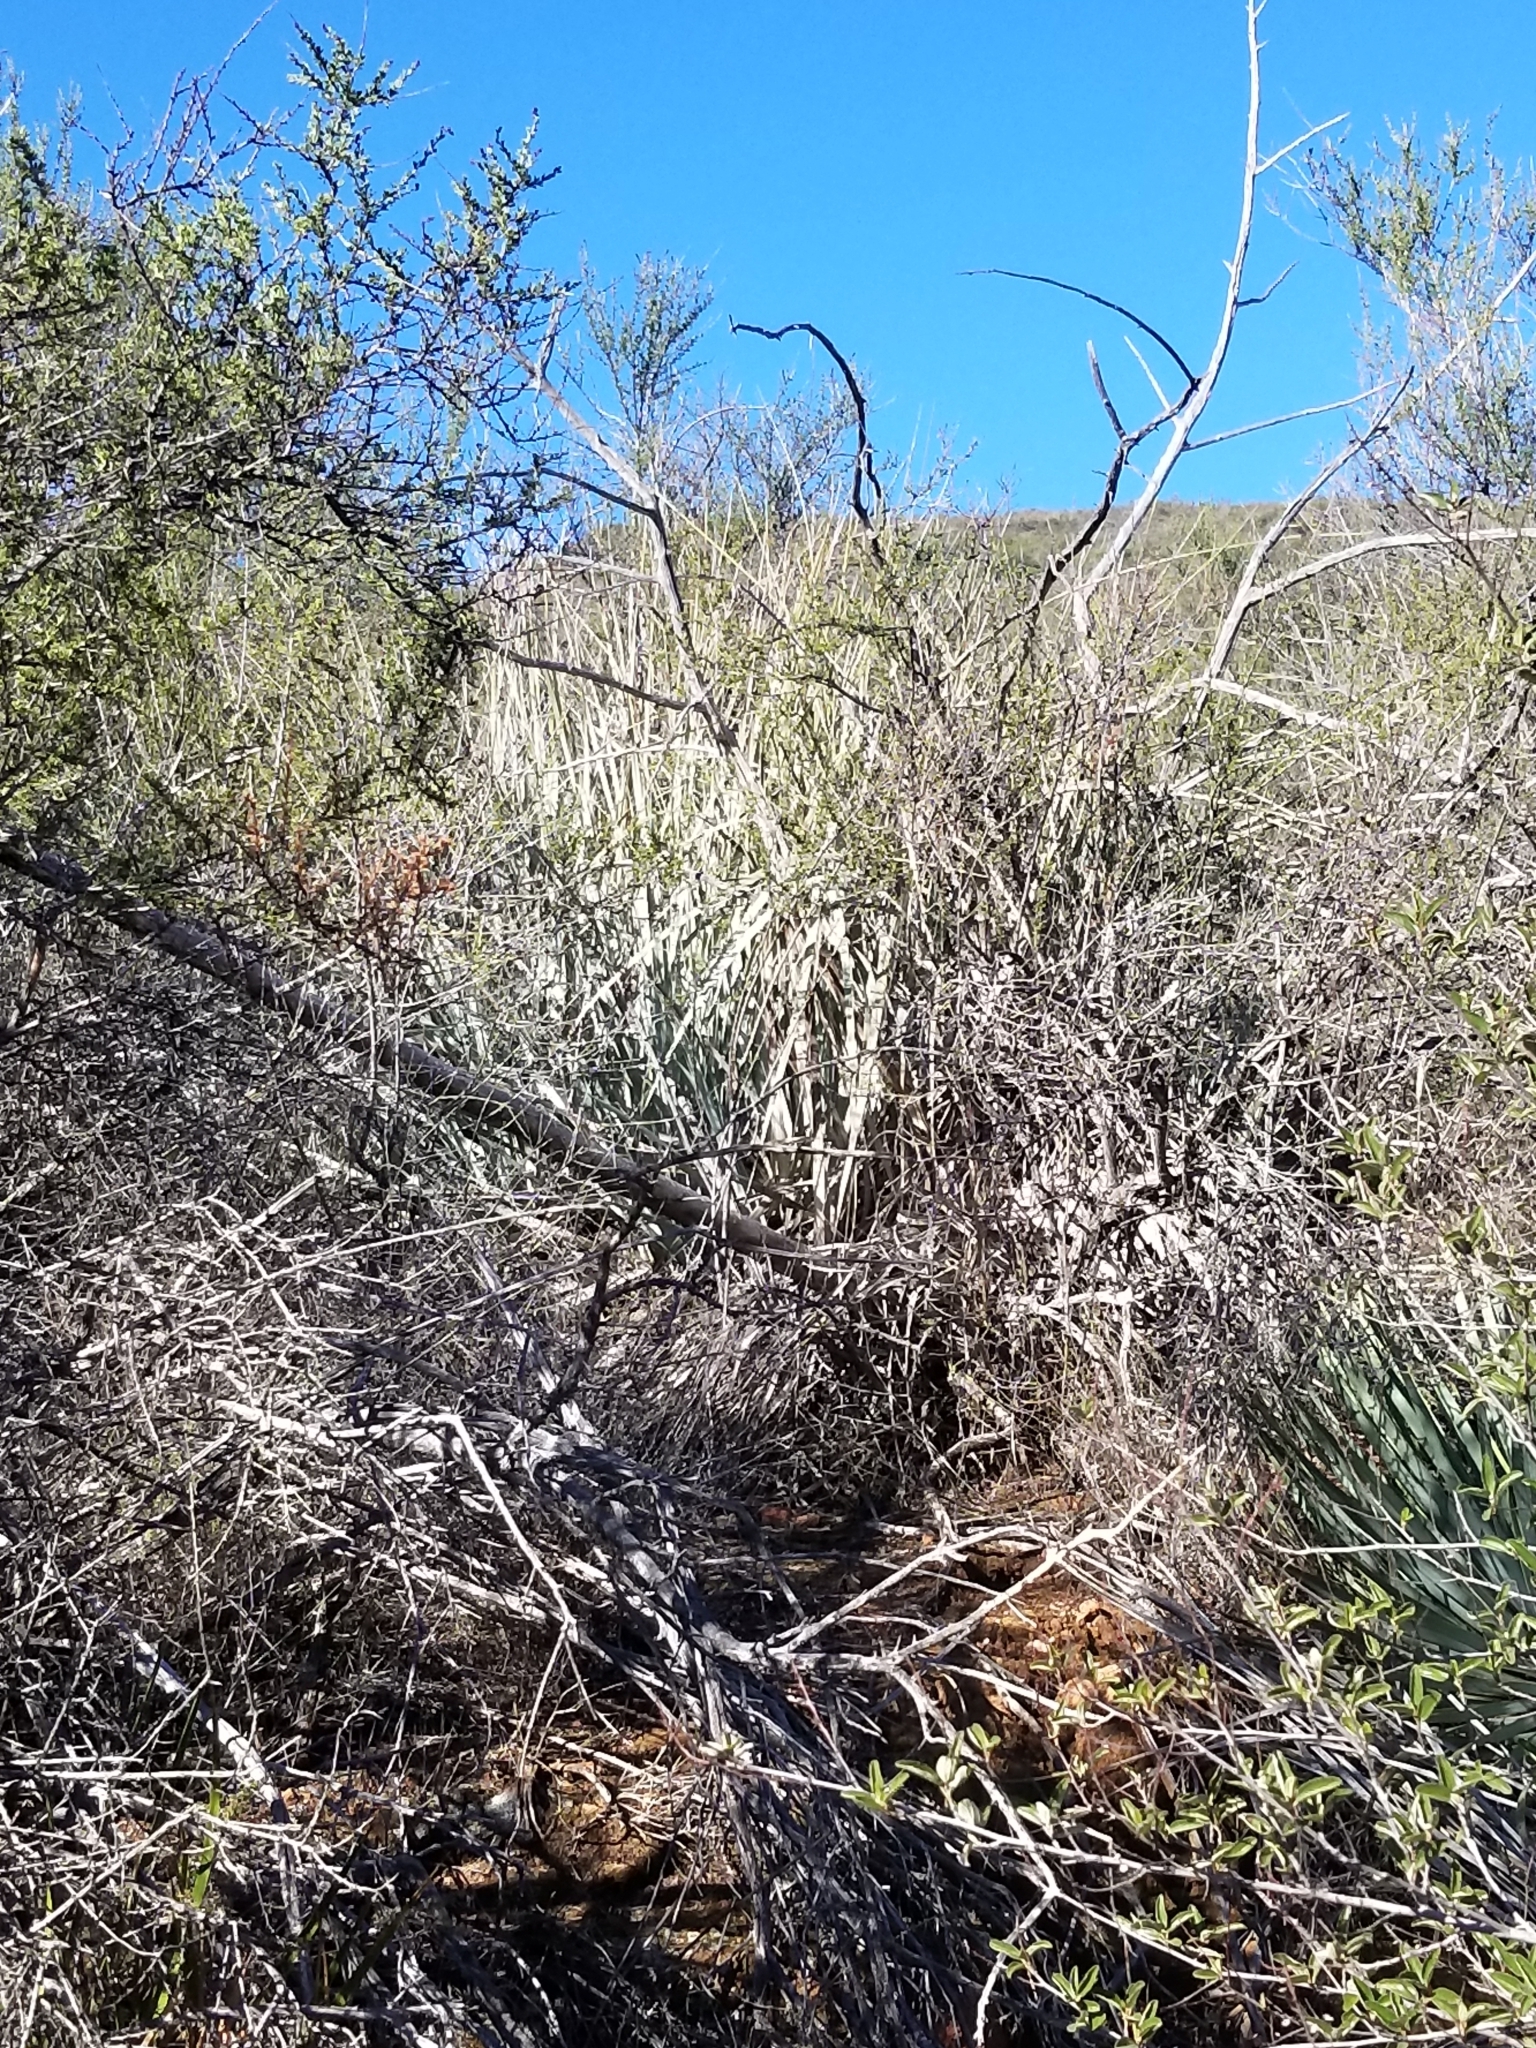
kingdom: Plantae
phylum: Tracheophyta
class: Liliopsida
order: Asparagales
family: Asparagaceae
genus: Nolina
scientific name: Nolina interrata
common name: Dehesa bear-grass
